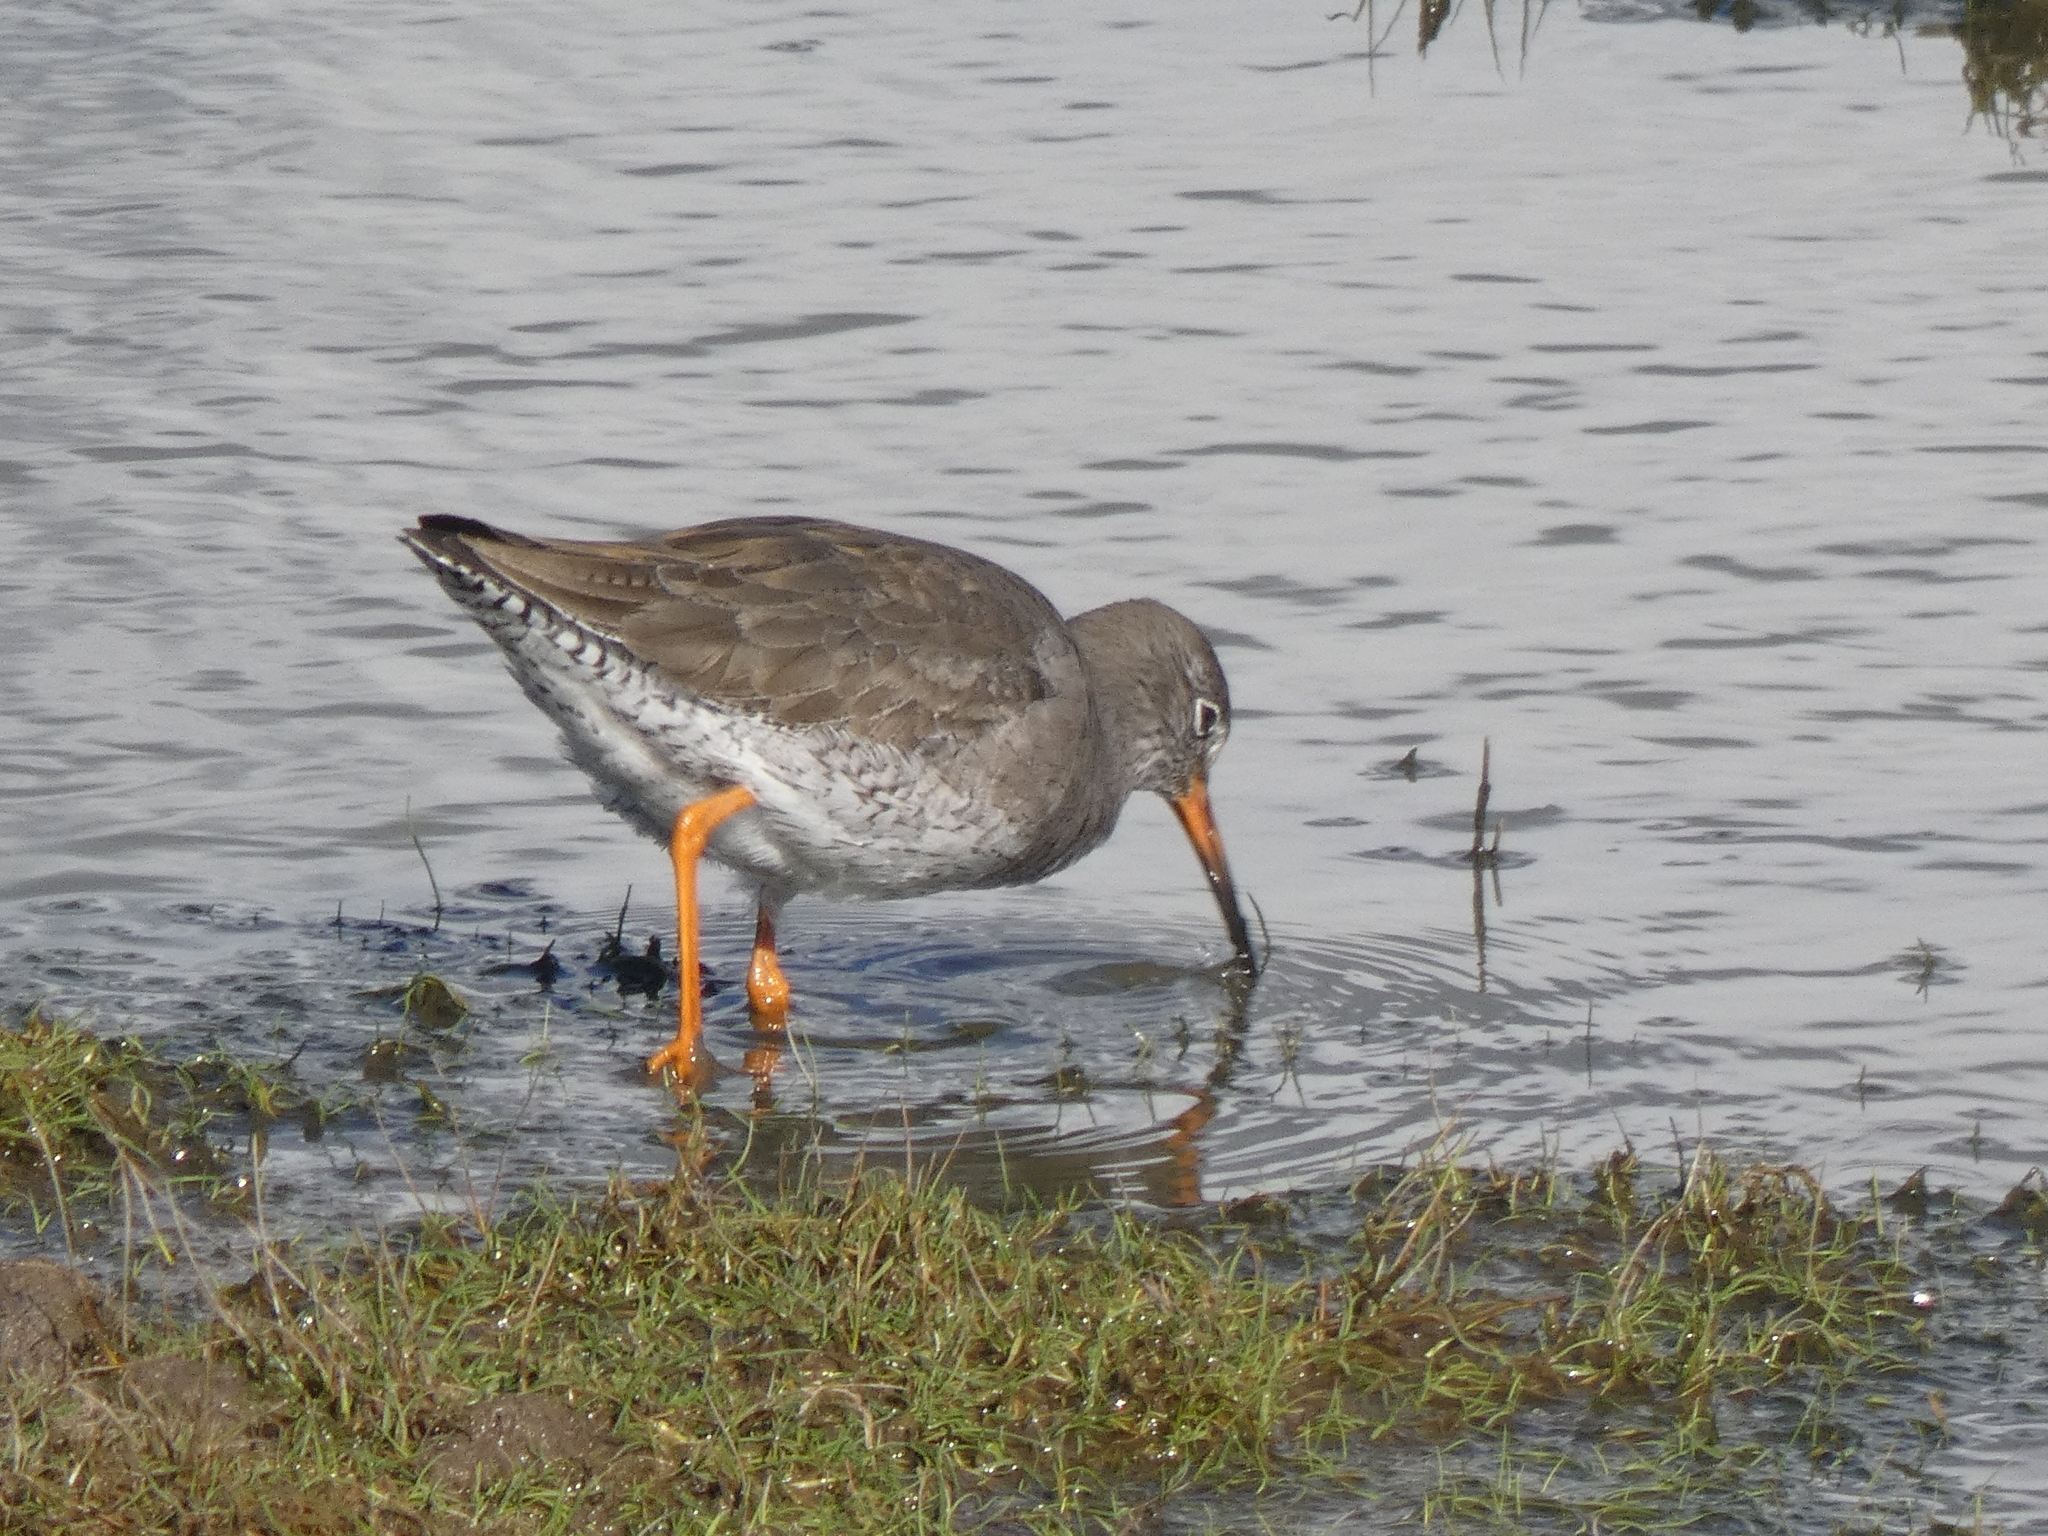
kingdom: Animalia
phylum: Chordata
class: Aves
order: Charadriiformes
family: Scolopacidae
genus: Tringa
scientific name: Tringa totanus
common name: Common redshank
